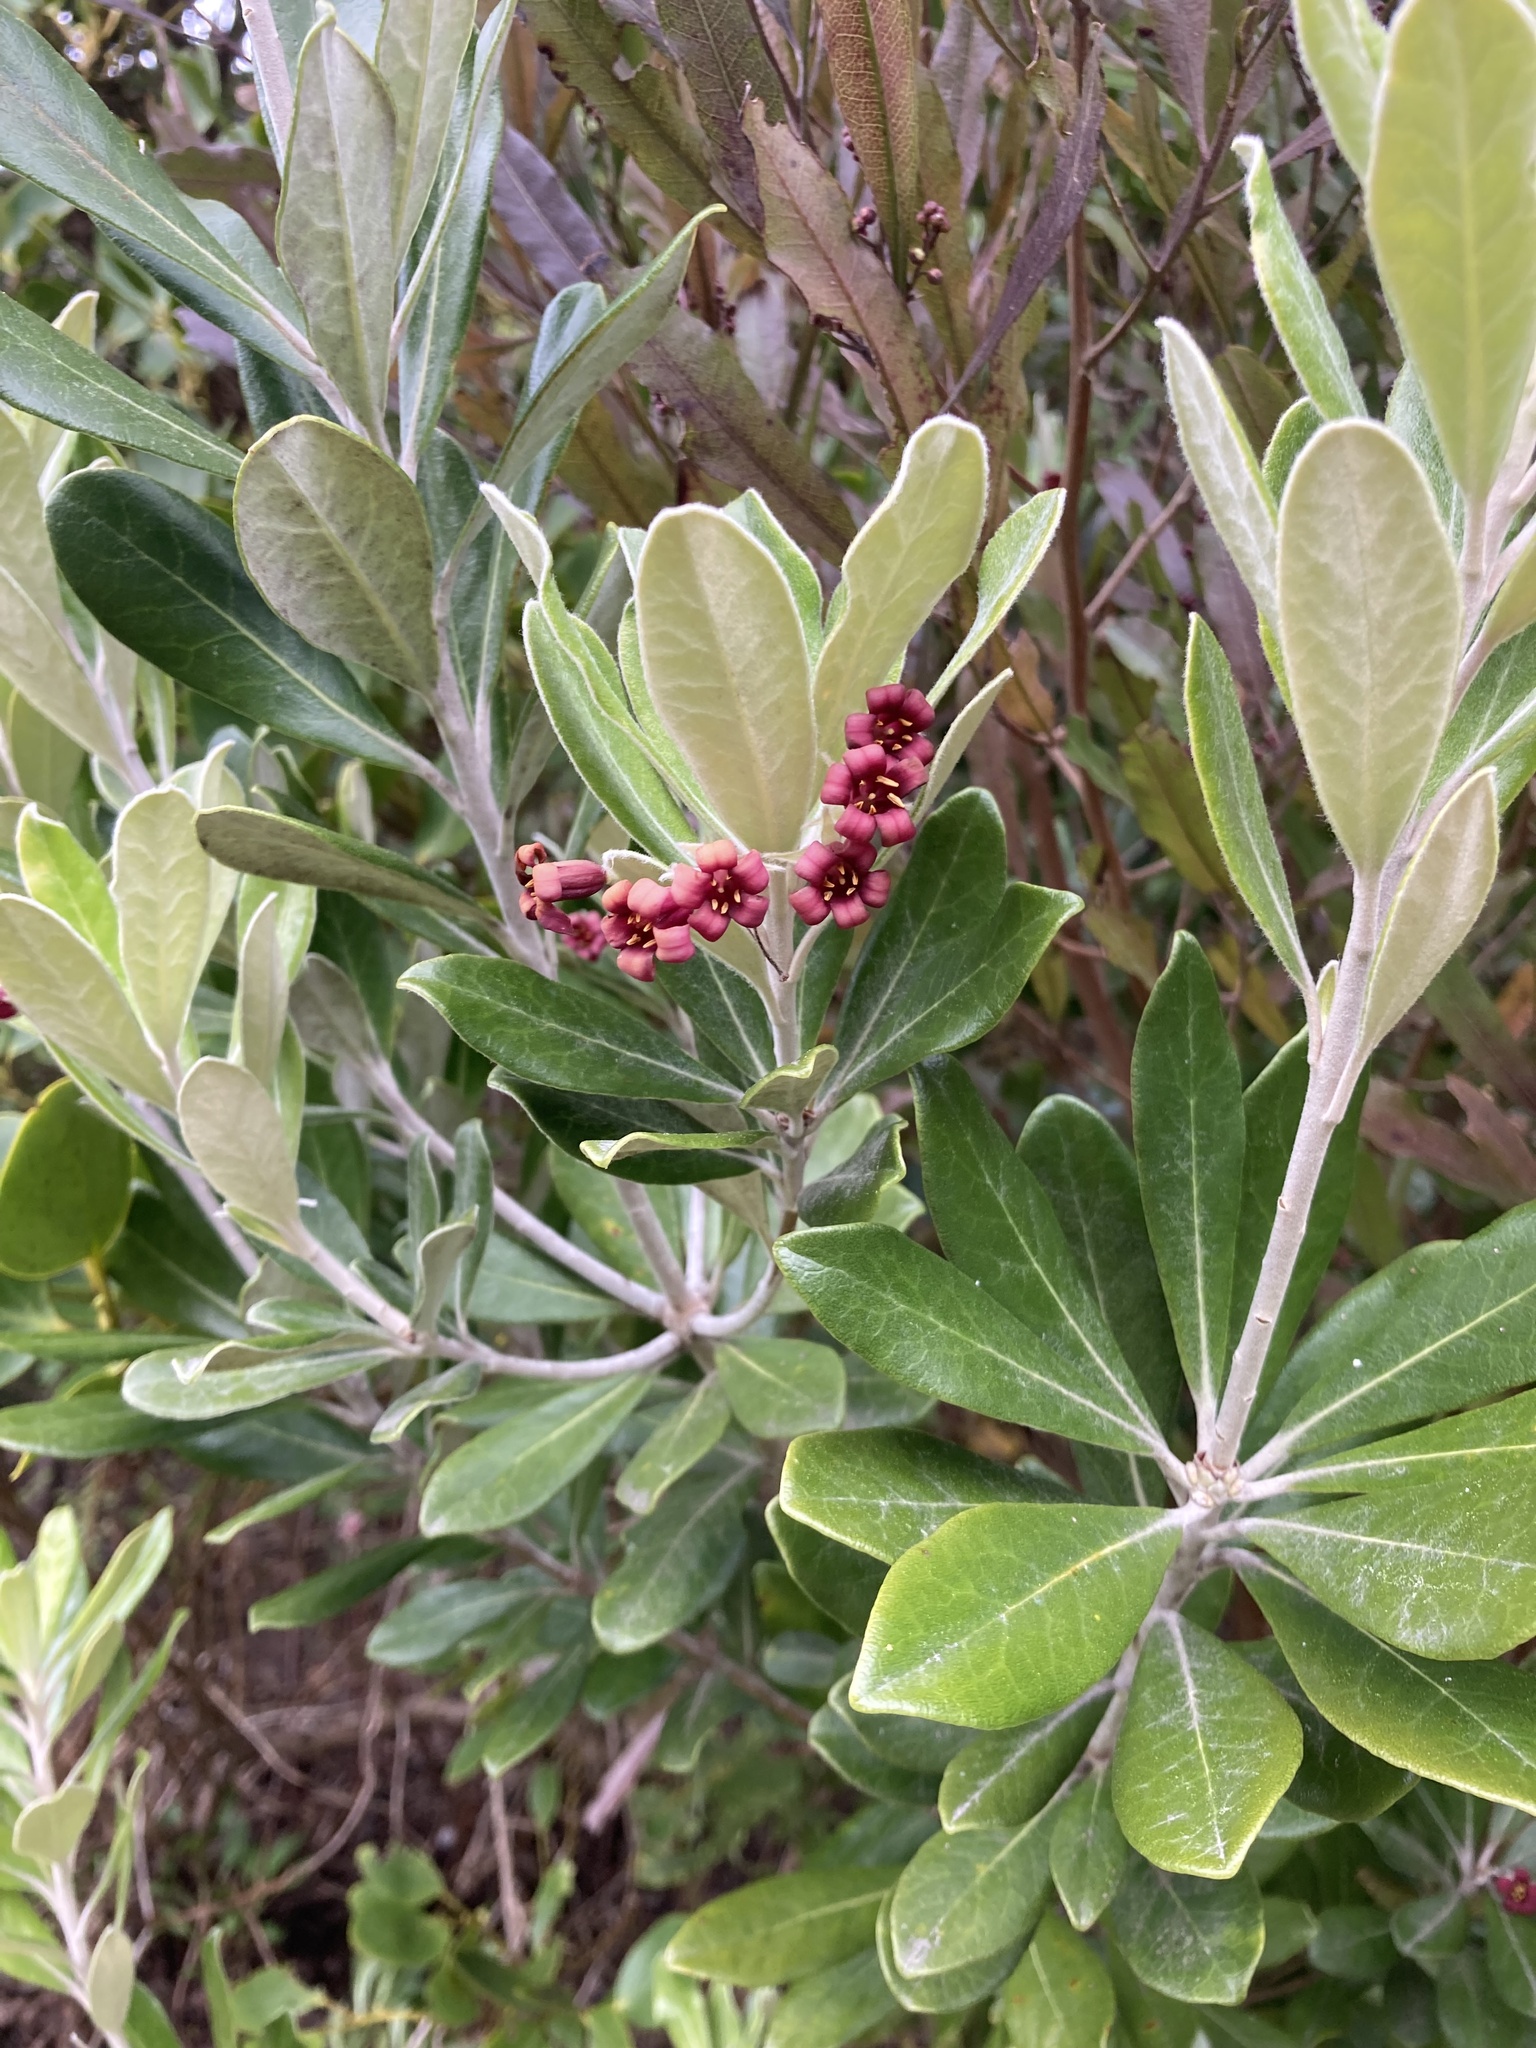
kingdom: Plantae
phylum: Tracheophyta
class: Magnoliopsida
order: Apiales
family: Pittosporaceae
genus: Pittosporum
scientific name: Pittosporum crassifolium
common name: Karo
